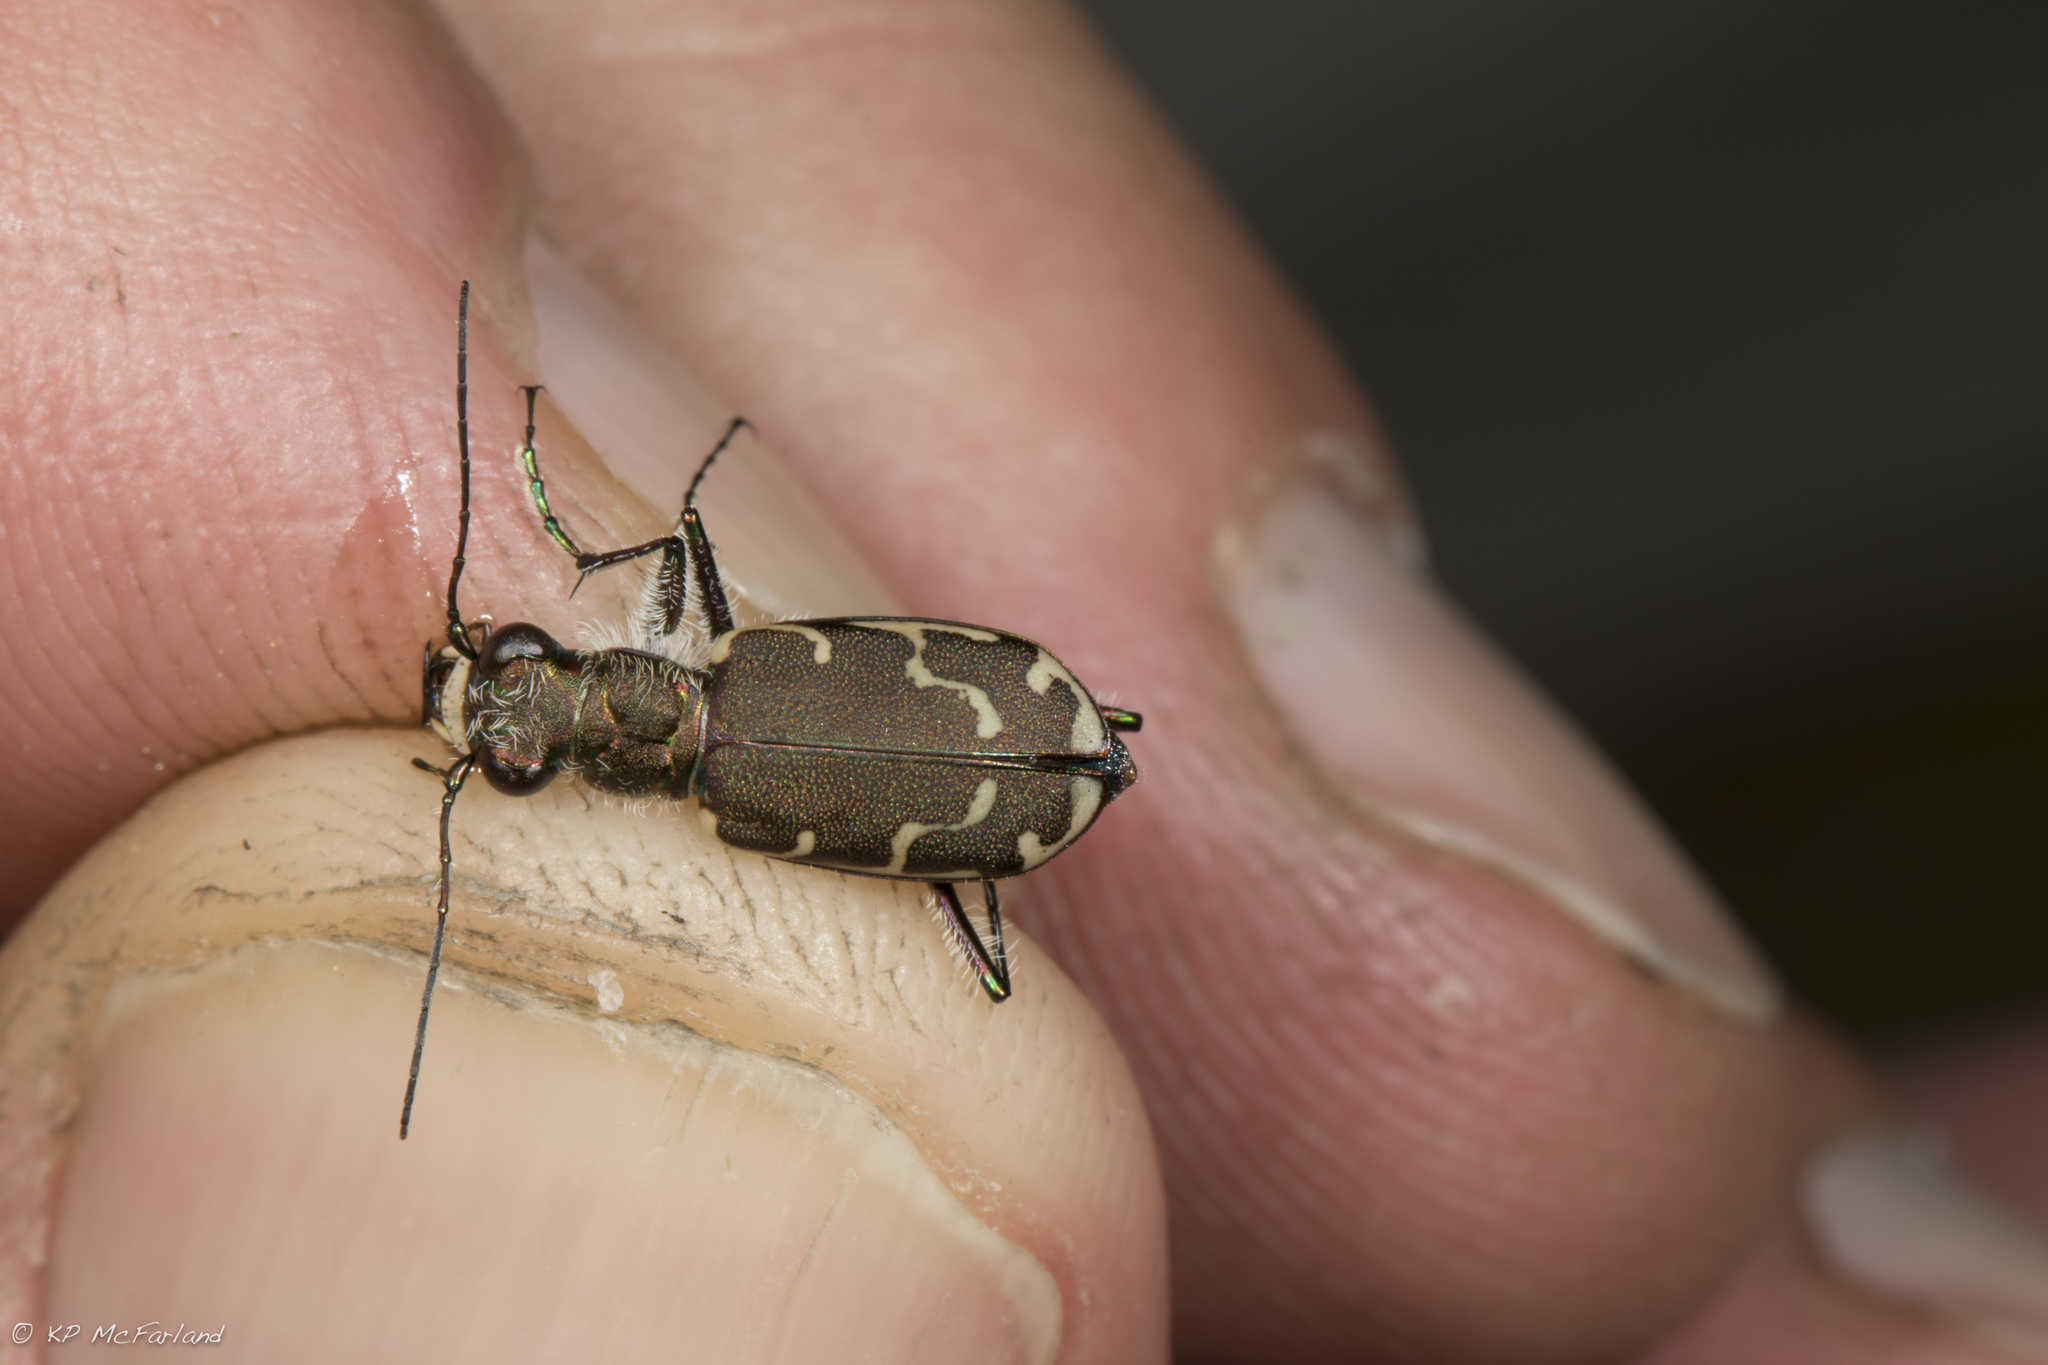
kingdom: Animalia
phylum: Arthropoda
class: Insecta
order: Coleoptera
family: Carabidae
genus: Cicindela
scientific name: Cicindela repanda
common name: Bronzed tiger beetle
